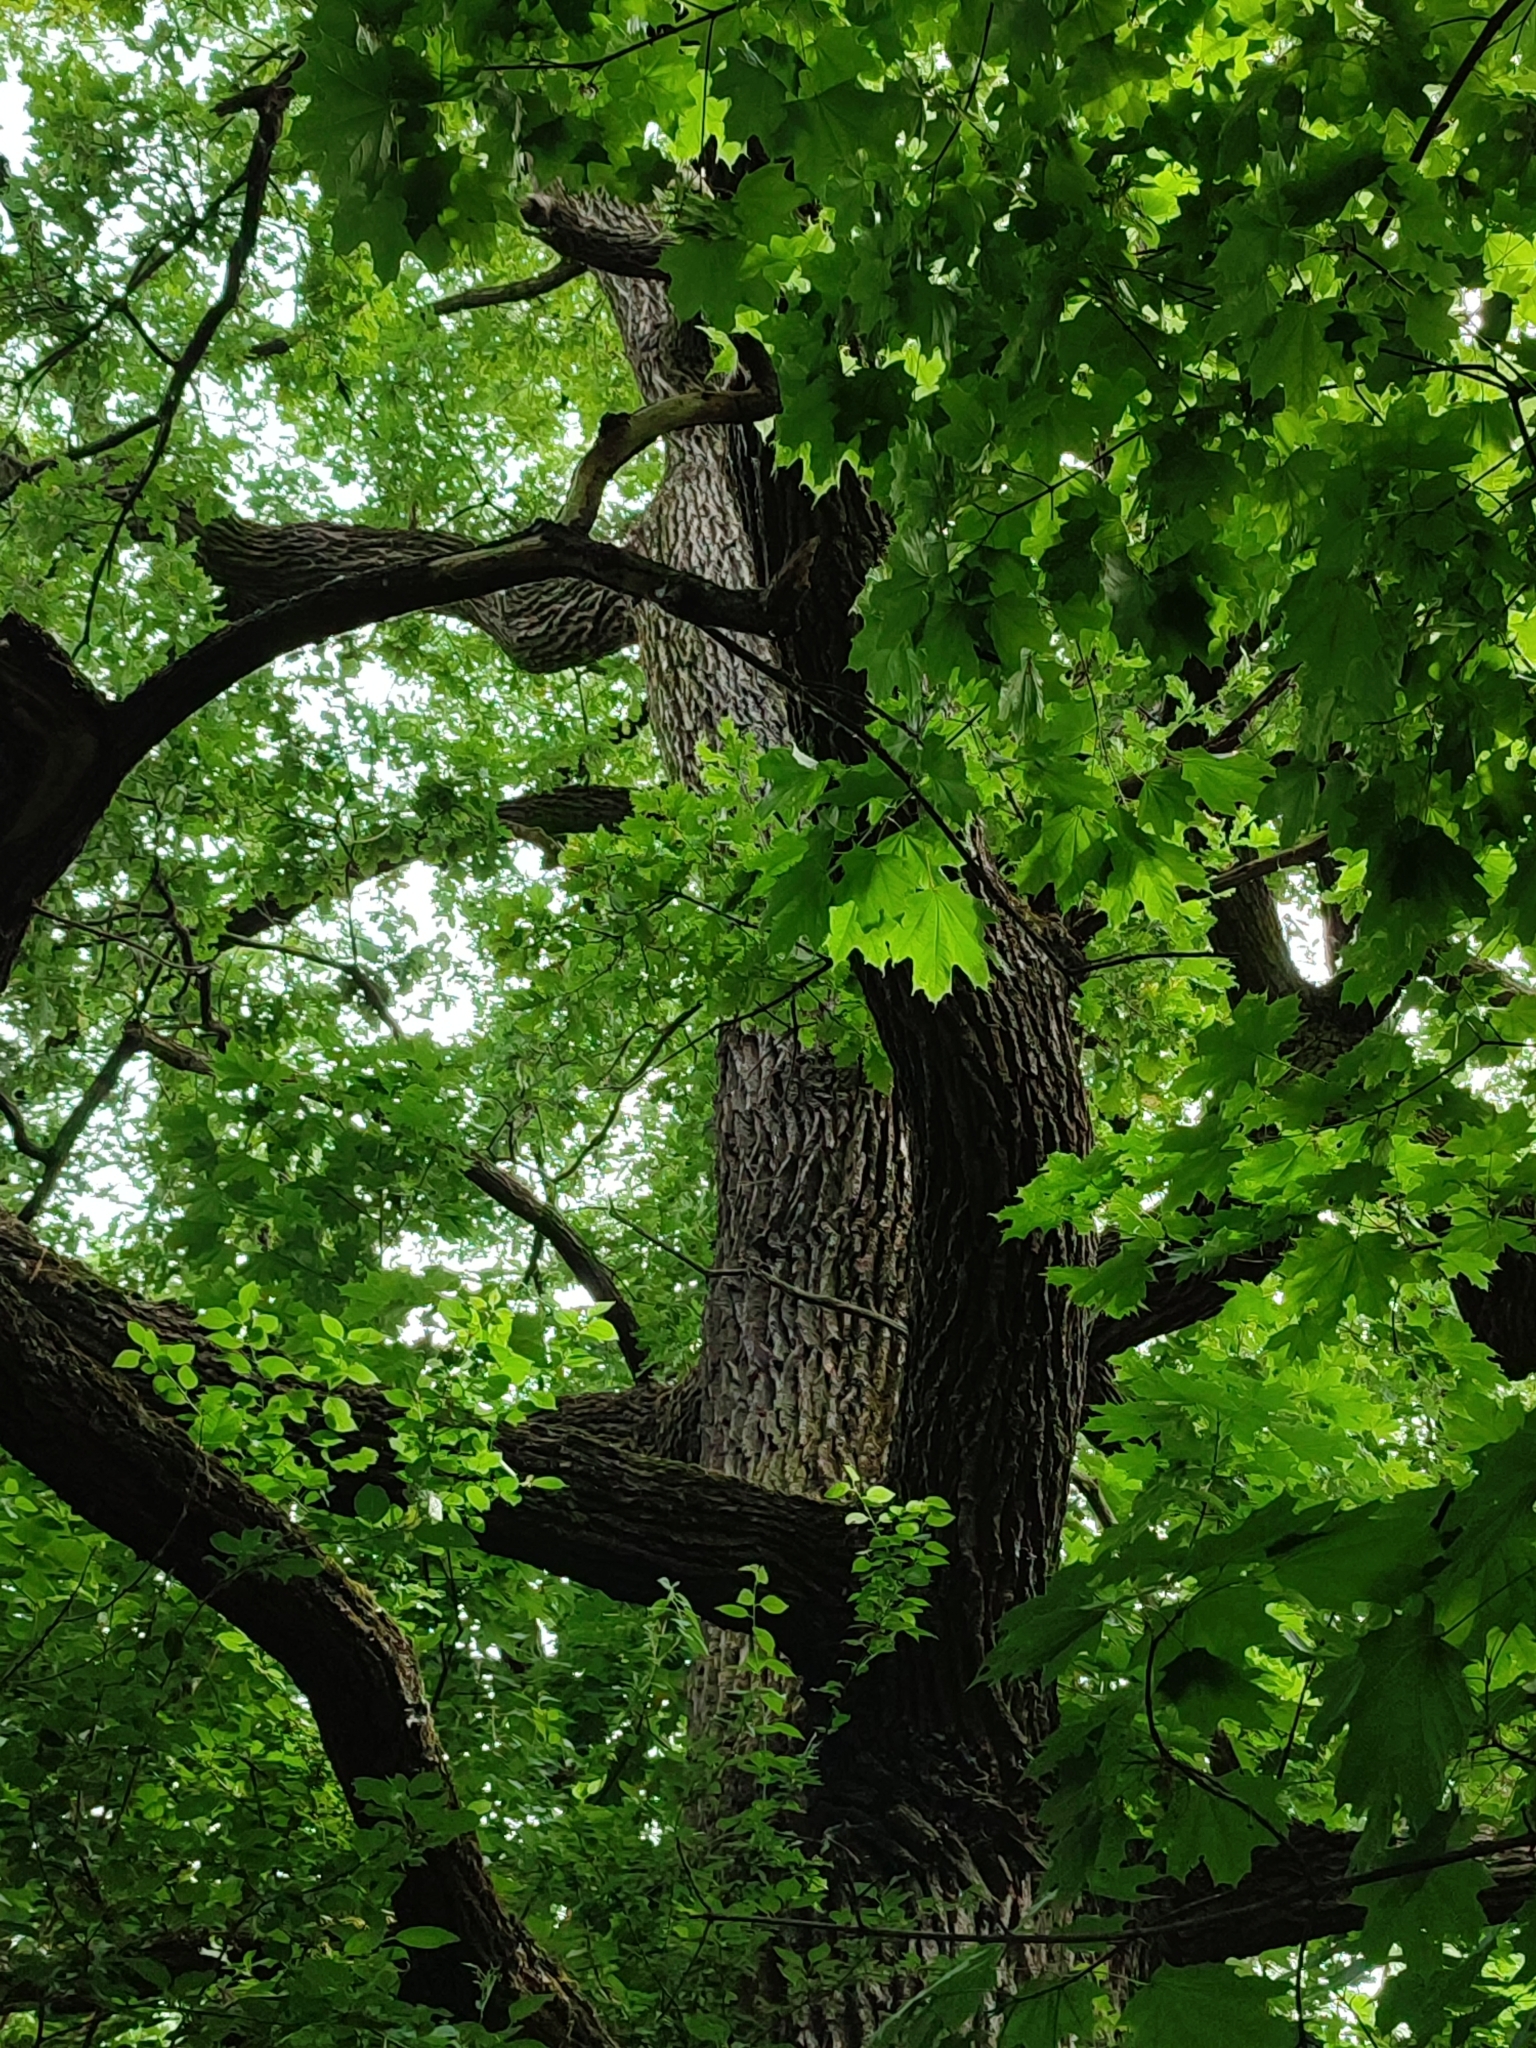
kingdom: Plantae
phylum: Tracheophyta
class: Magnoliopsida
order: Fagales
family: Fagaceae
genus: Quercus
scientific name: Quercus robur
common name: Pedunculate oak
